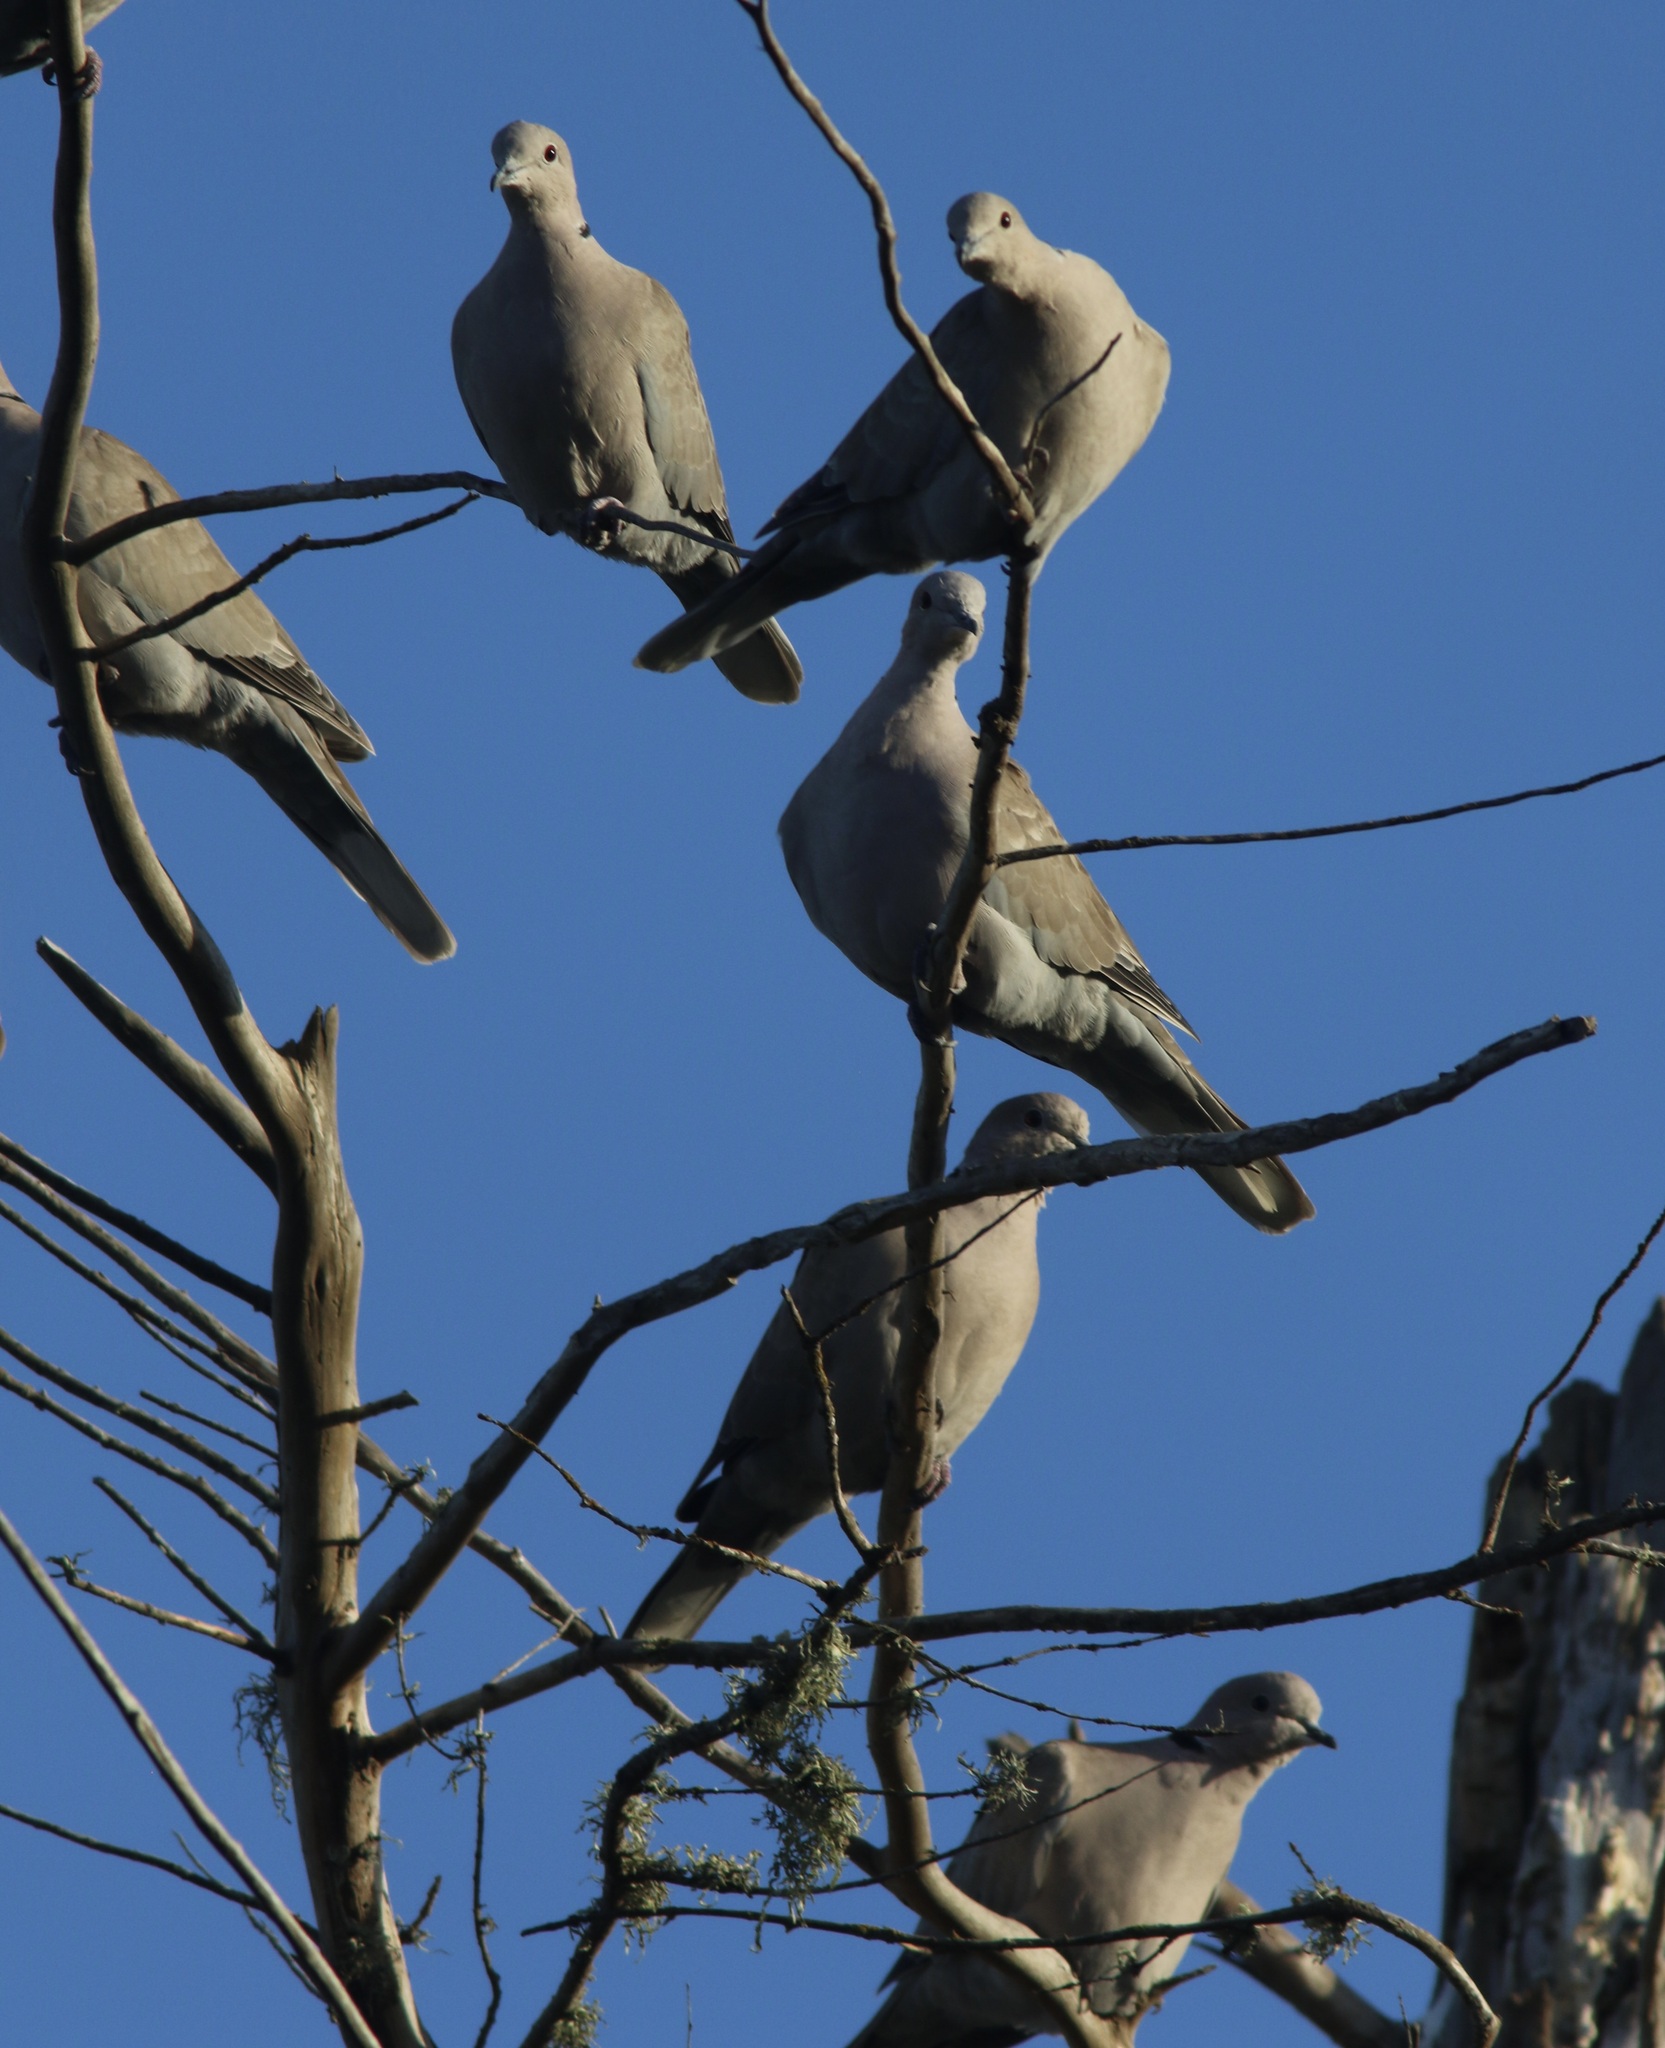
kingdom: Animalia
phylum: Chordata
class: Aves
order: Columbiformes
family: Columbidae
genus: Streptopelia
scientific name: Streptopelia decaocto
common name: Eurasian collared dove
